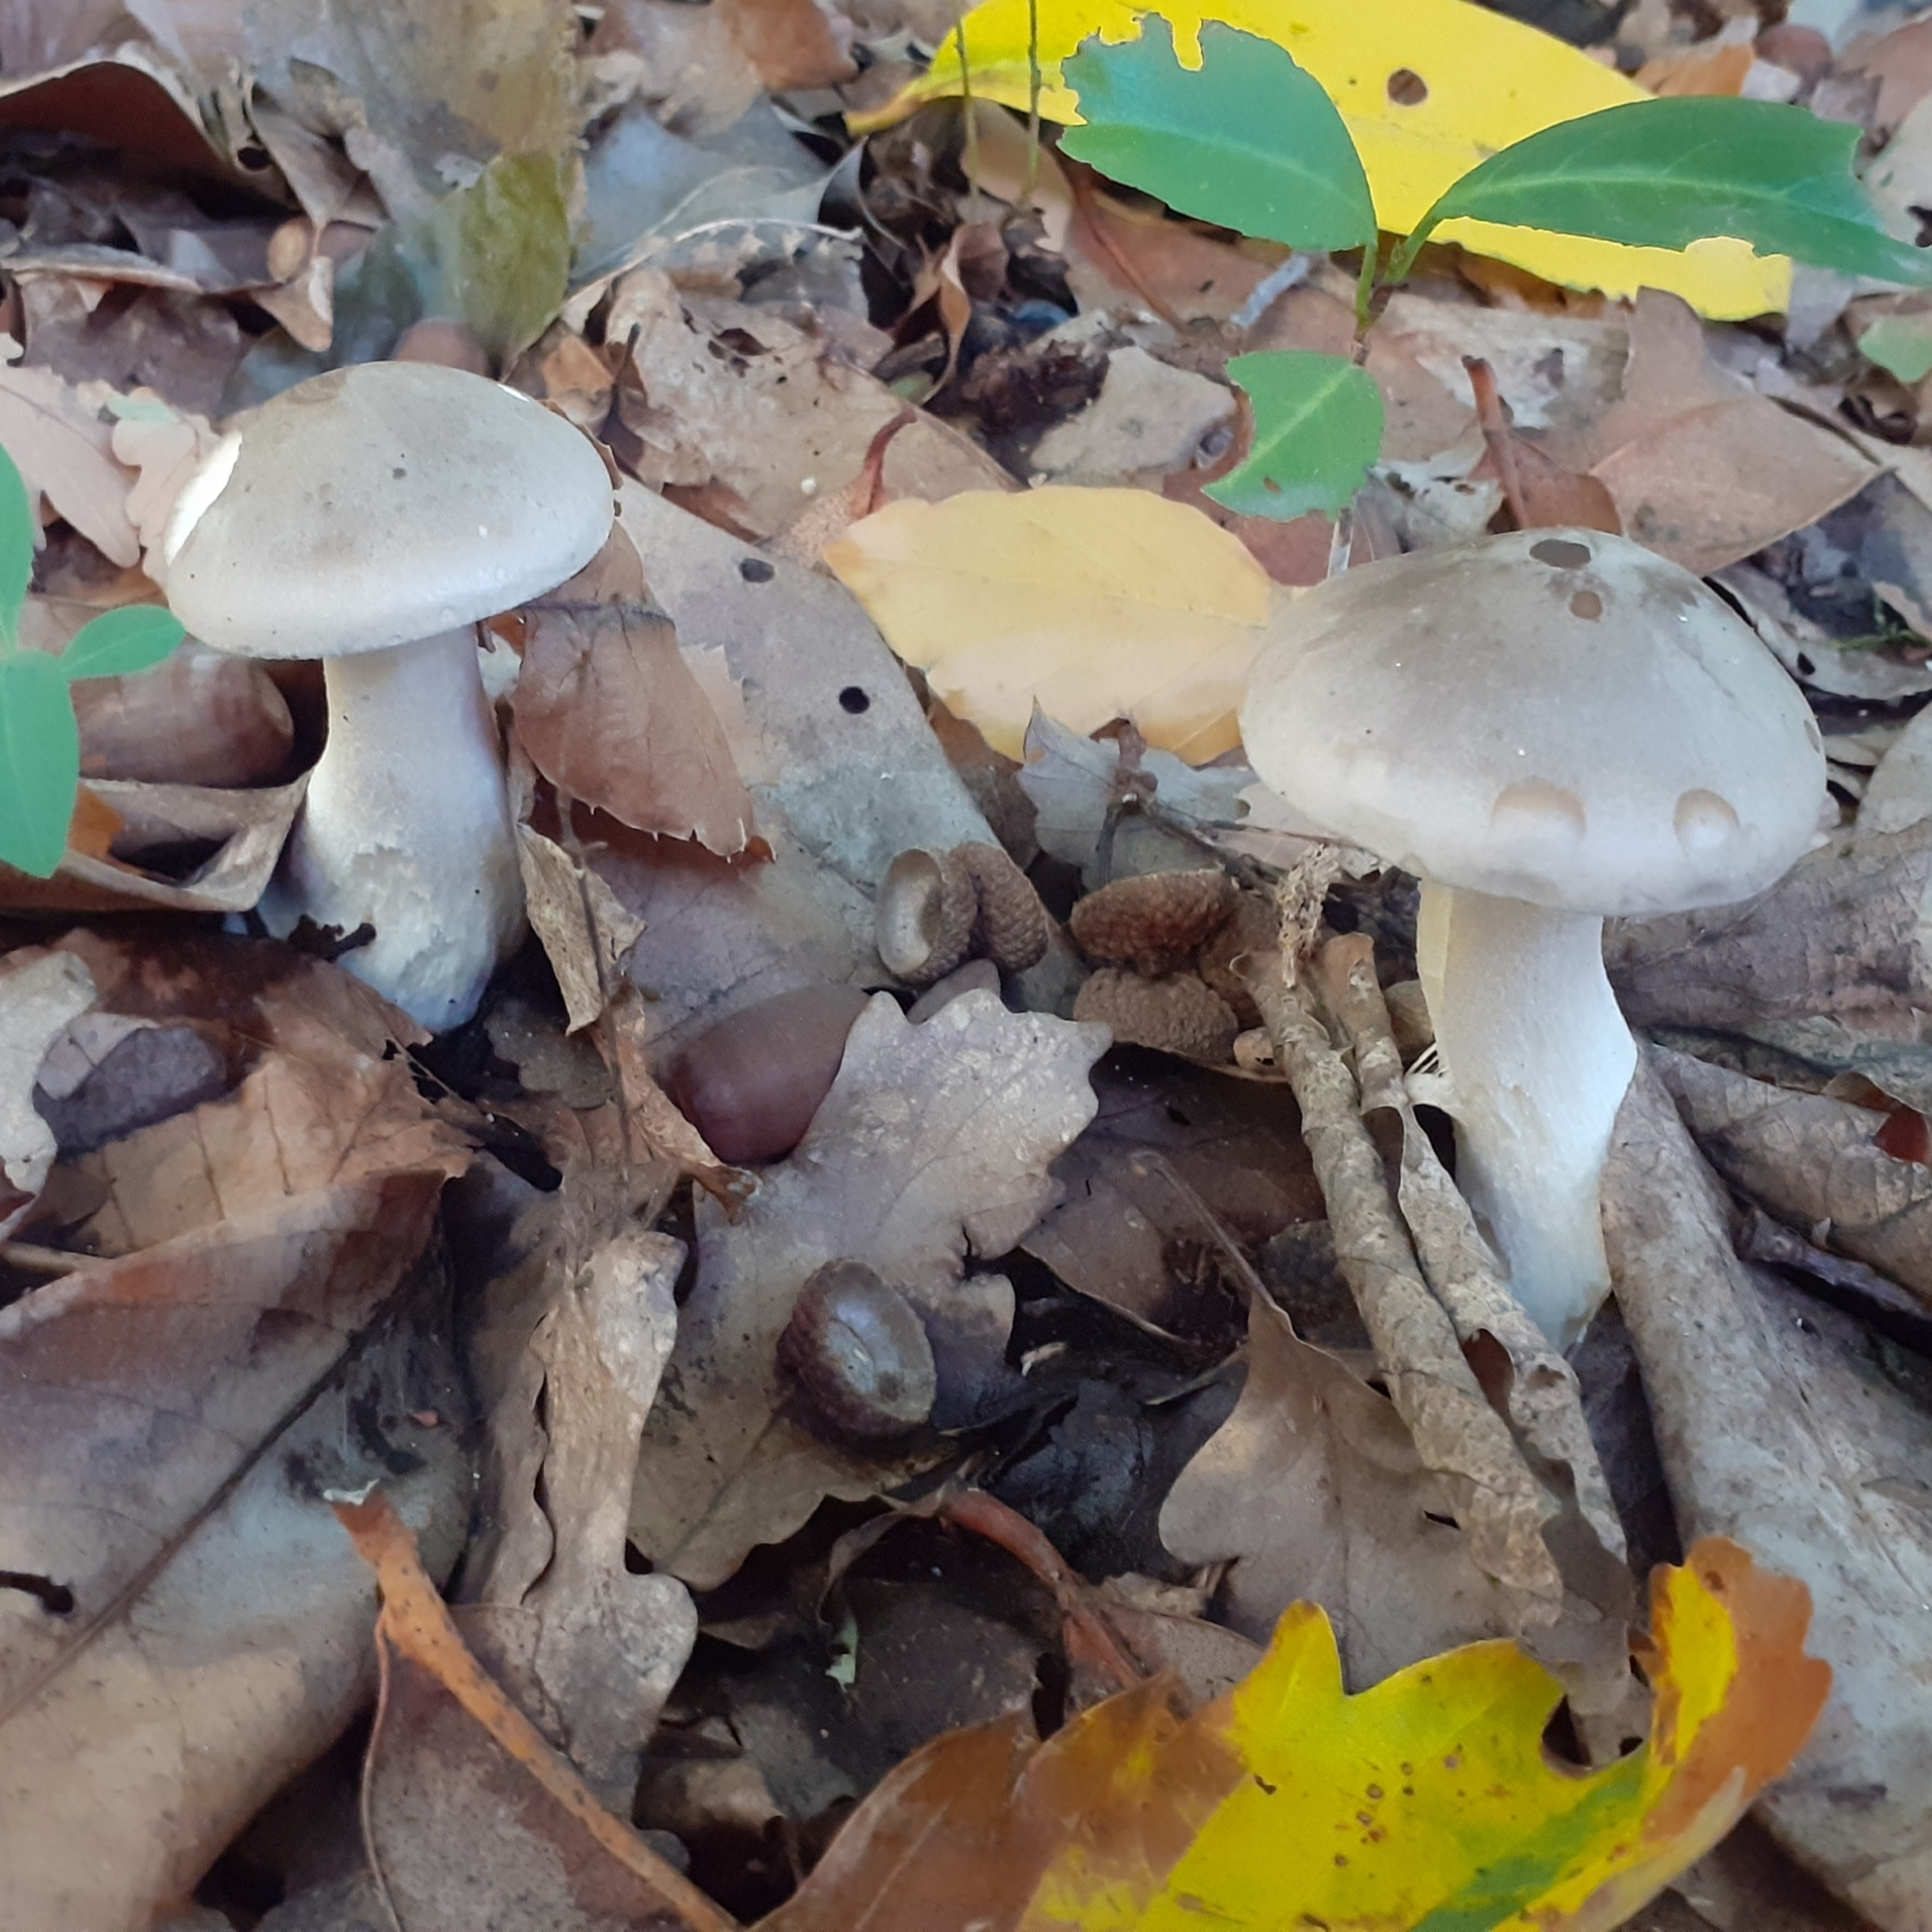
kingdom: Fungi
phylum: Basidiomycota
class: Agaricomycetes
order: Agaricales
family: Tricholomataceae
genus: Clitocybe
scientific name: Clitocybe nebularis
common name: Clouded agaric
